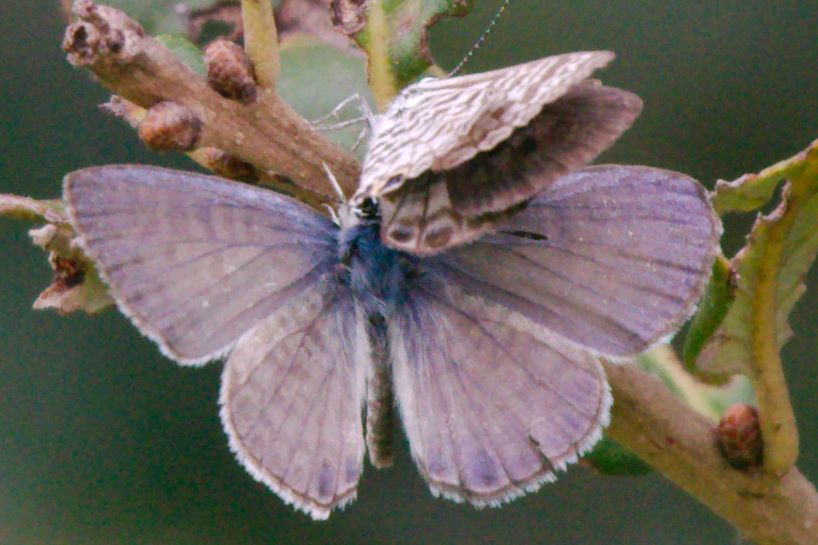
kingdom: Animalia
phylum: Arthropoda
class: Insecta
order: Lepidoptera
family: Lycaenidae
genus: Leptotes
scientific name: Leptotes cassius
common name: Cassius blue
